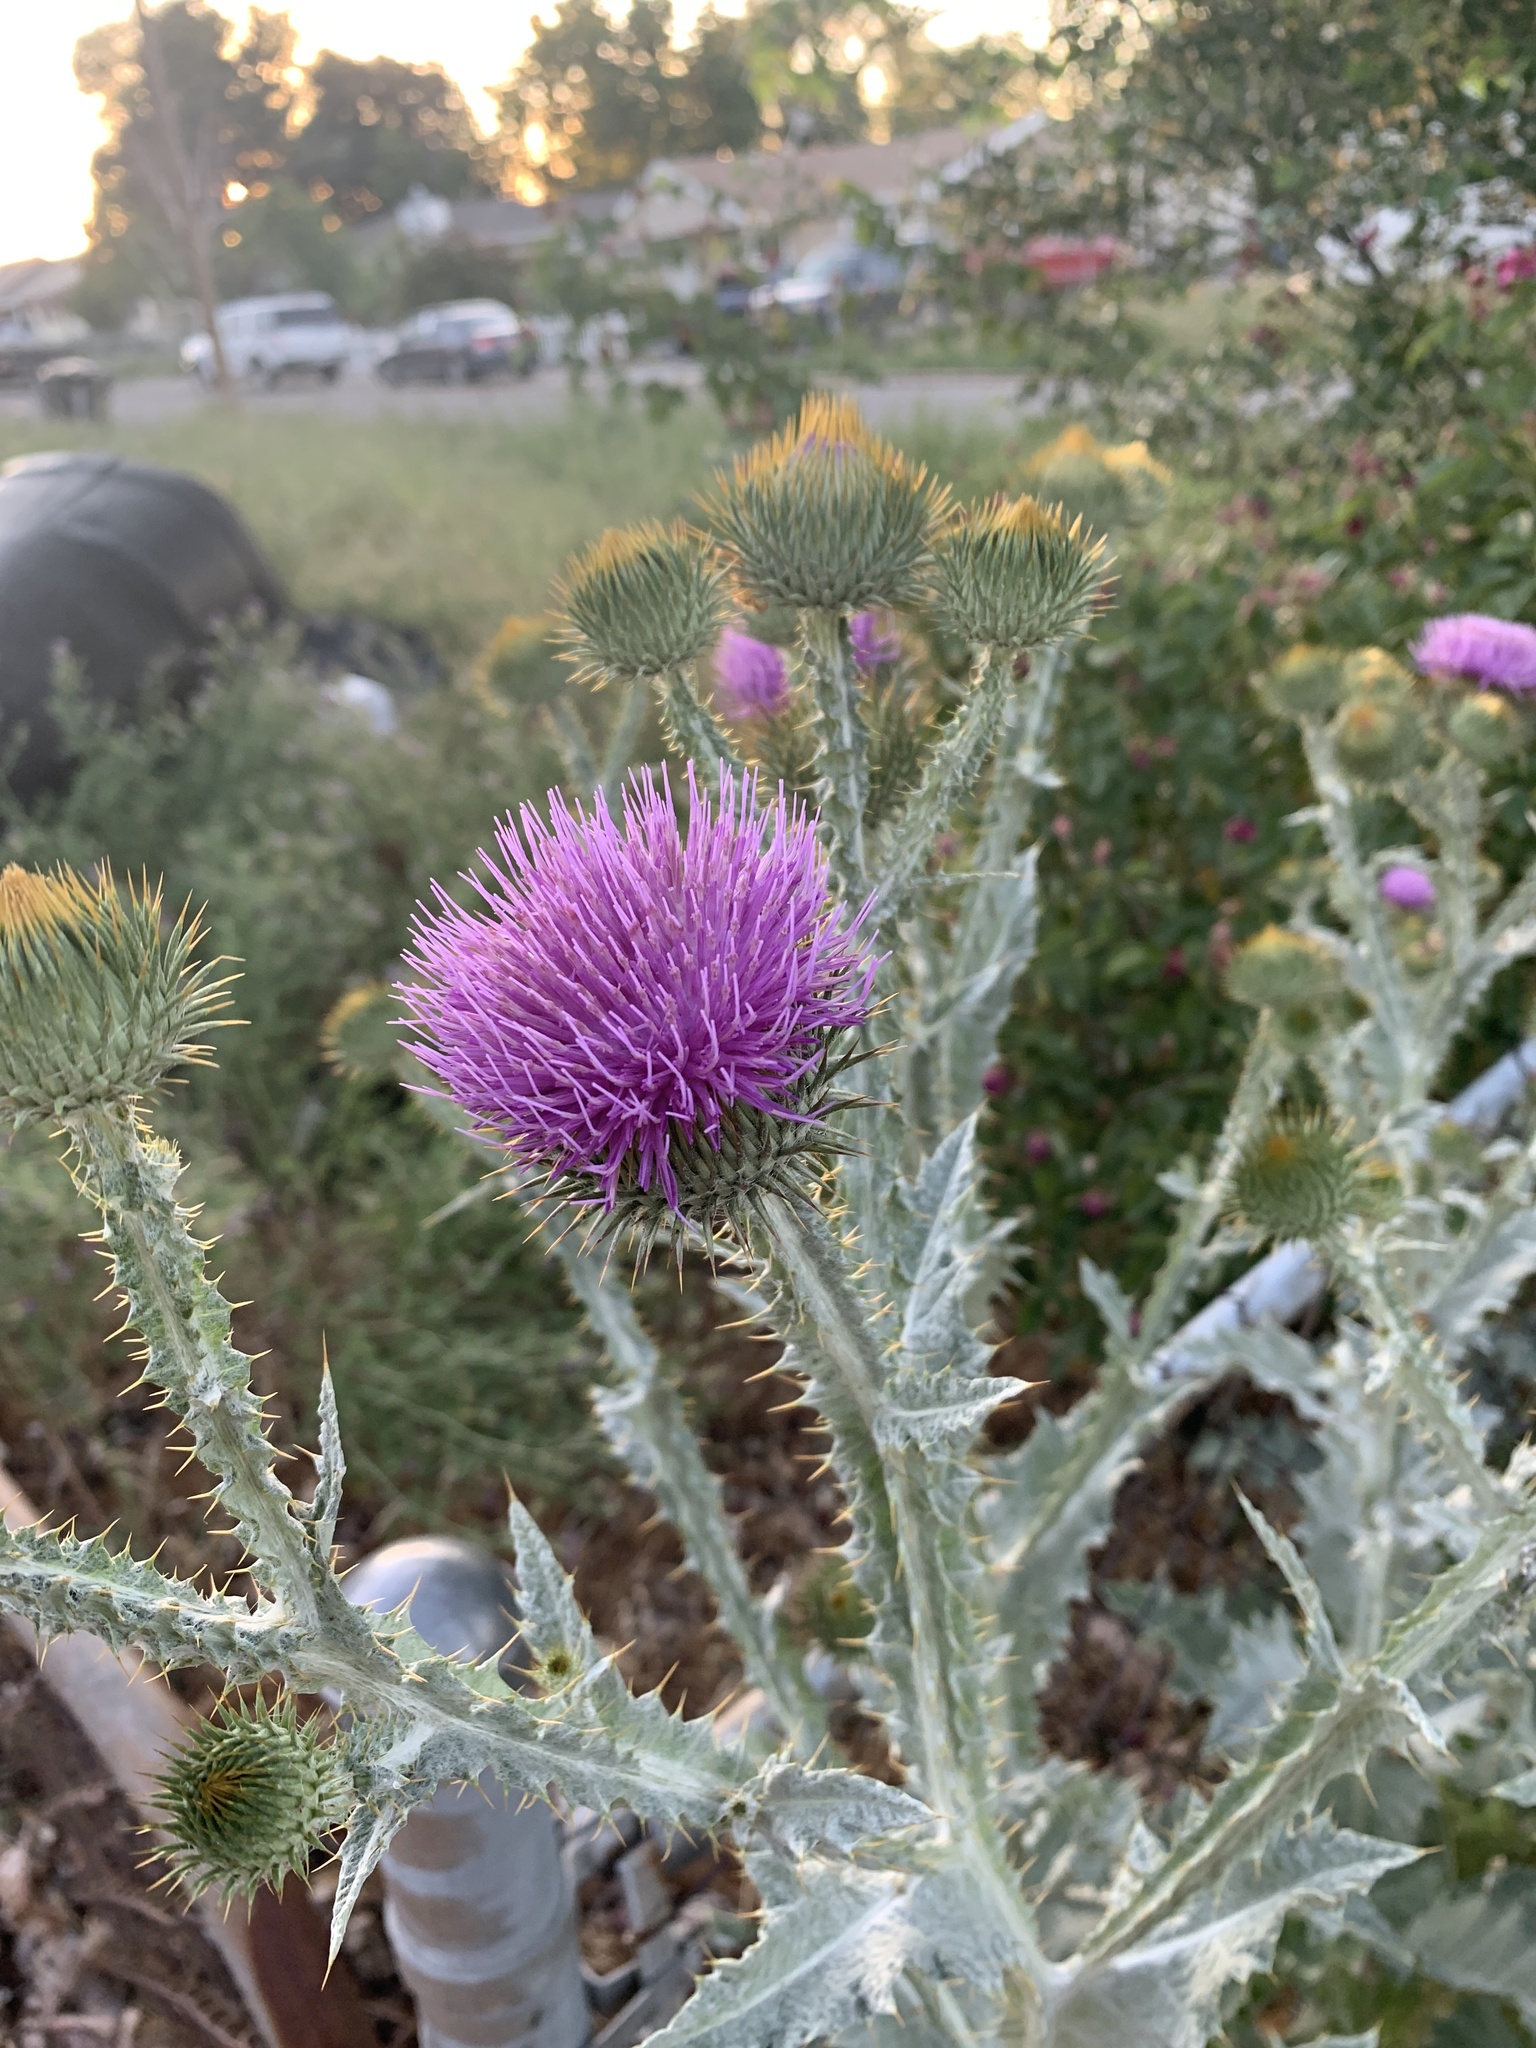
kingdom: Plantae
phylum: Tracheophyta
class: Magnoliopsida
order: Asterales
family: Asteraceae
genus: Onopordum
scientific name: Onopordum acanthium
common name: Scotch thistle
